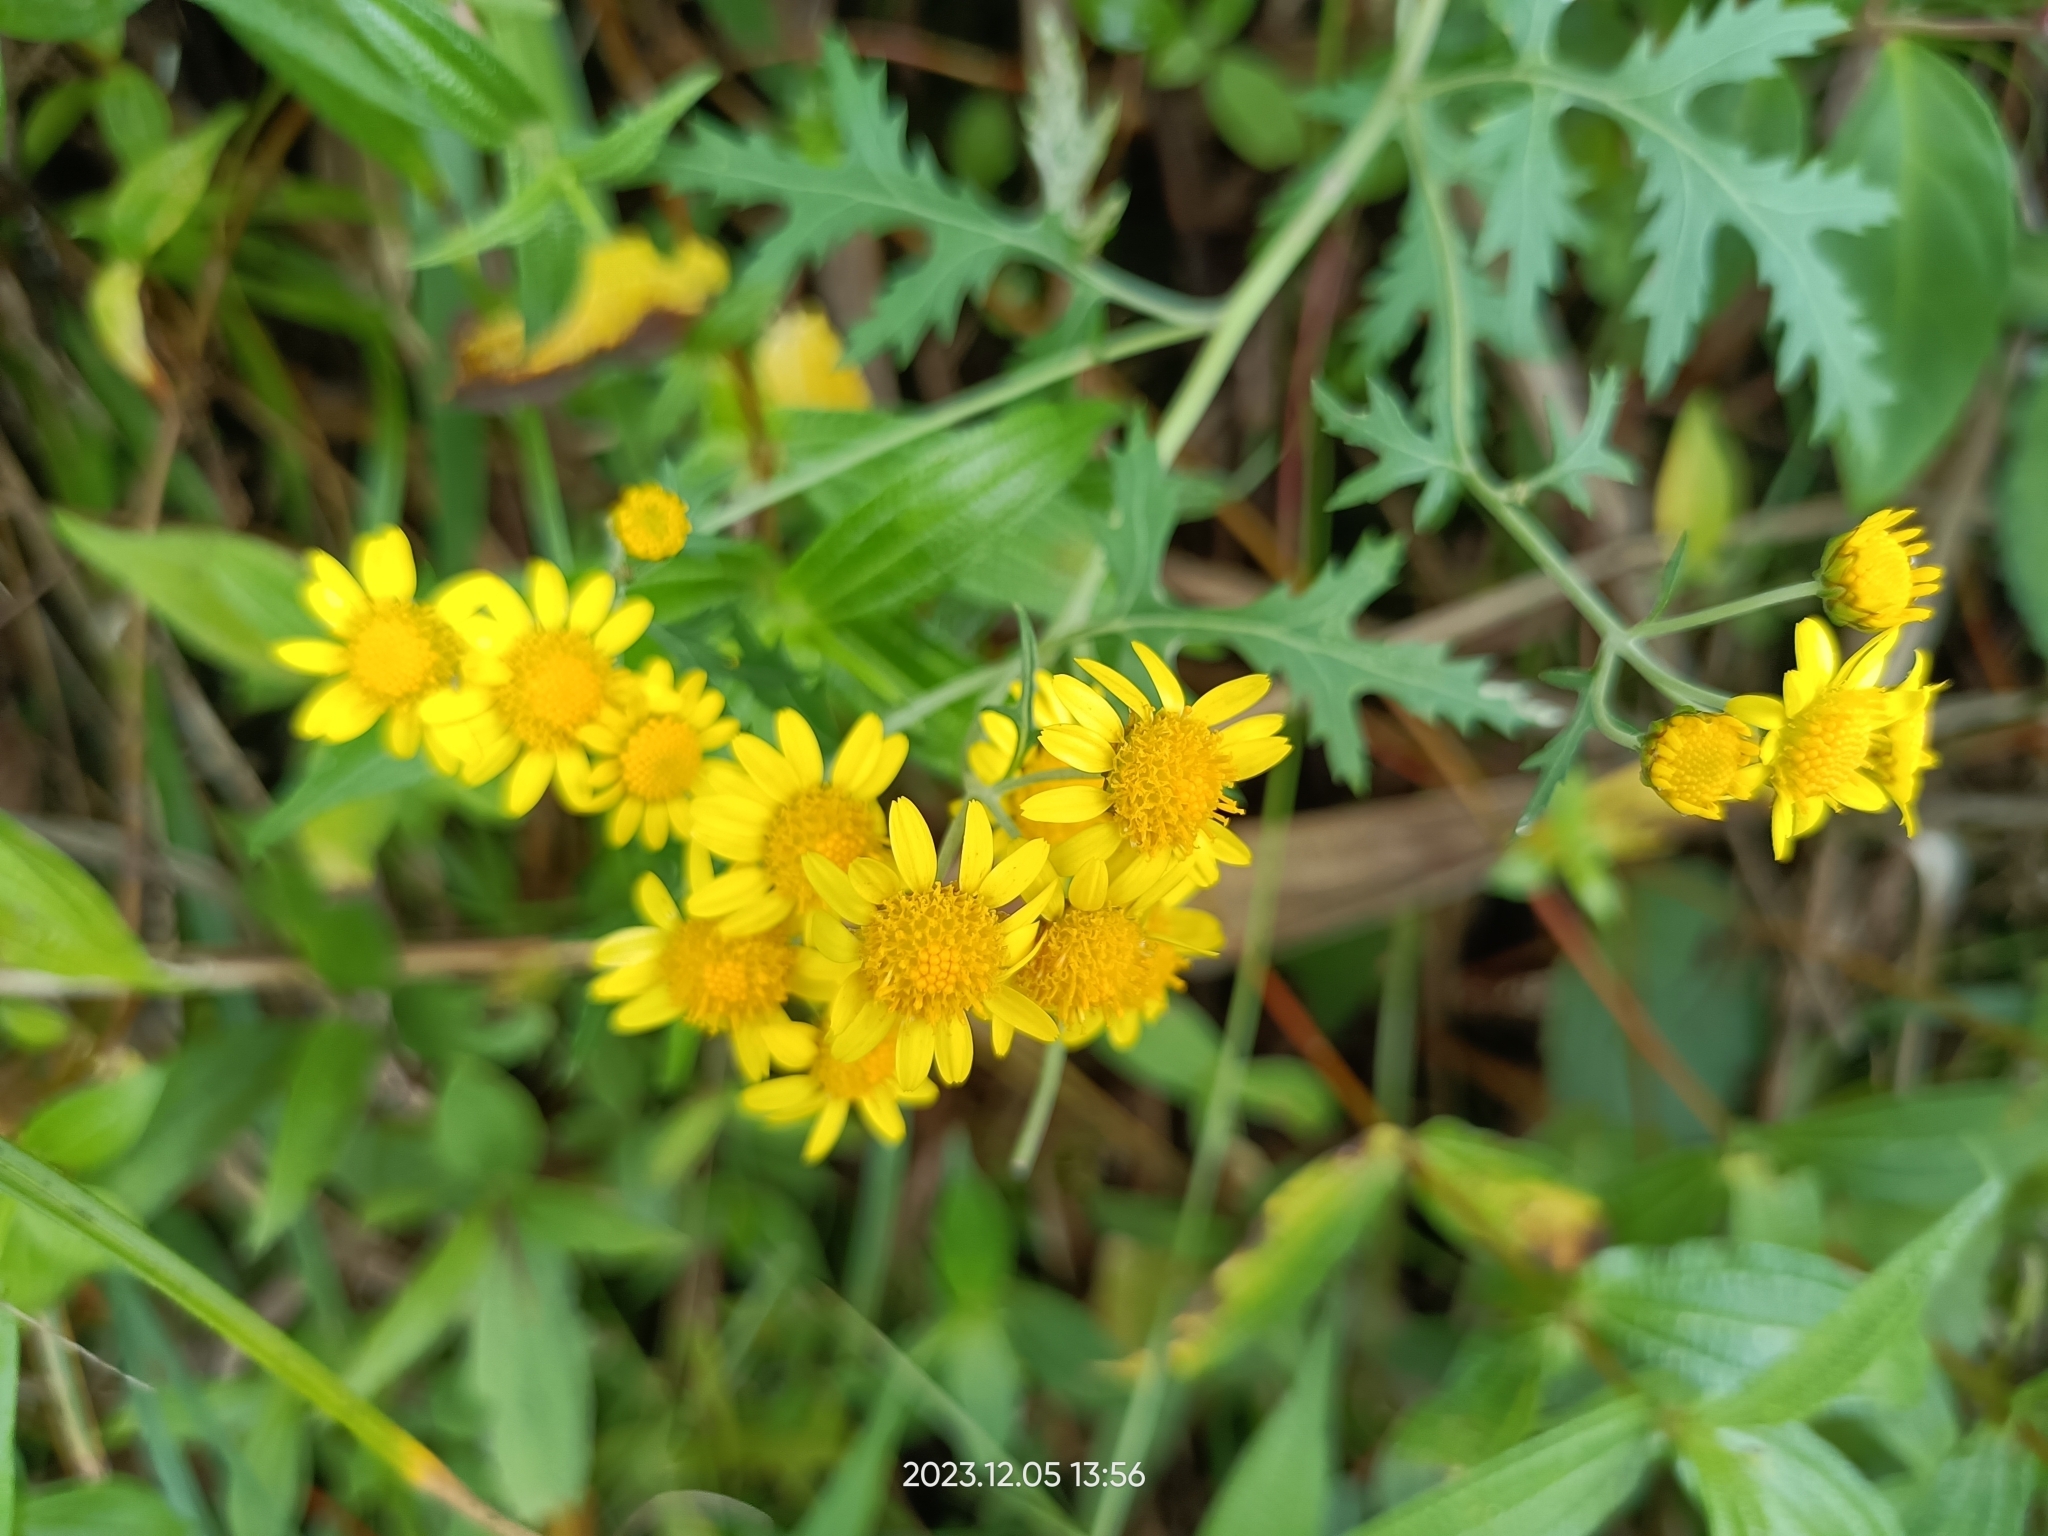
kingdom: Plantae
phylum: Tracheophyta
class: Magnoliopsida
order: Asterales
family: Asteraceae
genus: Chrysanthemum
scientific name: Chrysanthemum arisanense
